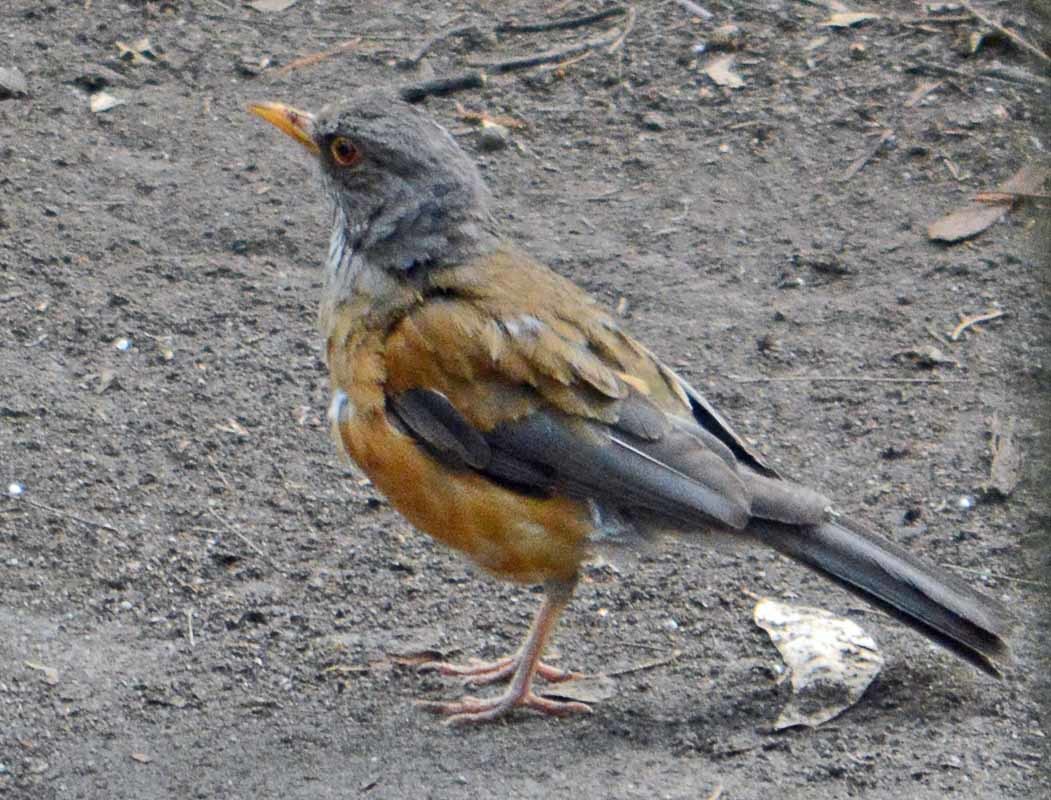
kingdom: Animalia
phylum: Chordata
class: Aves
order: Passeriformes
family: Turdidae
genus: Turdus
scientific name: Turdus rufopalliatus
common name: Rufous-backed robin
